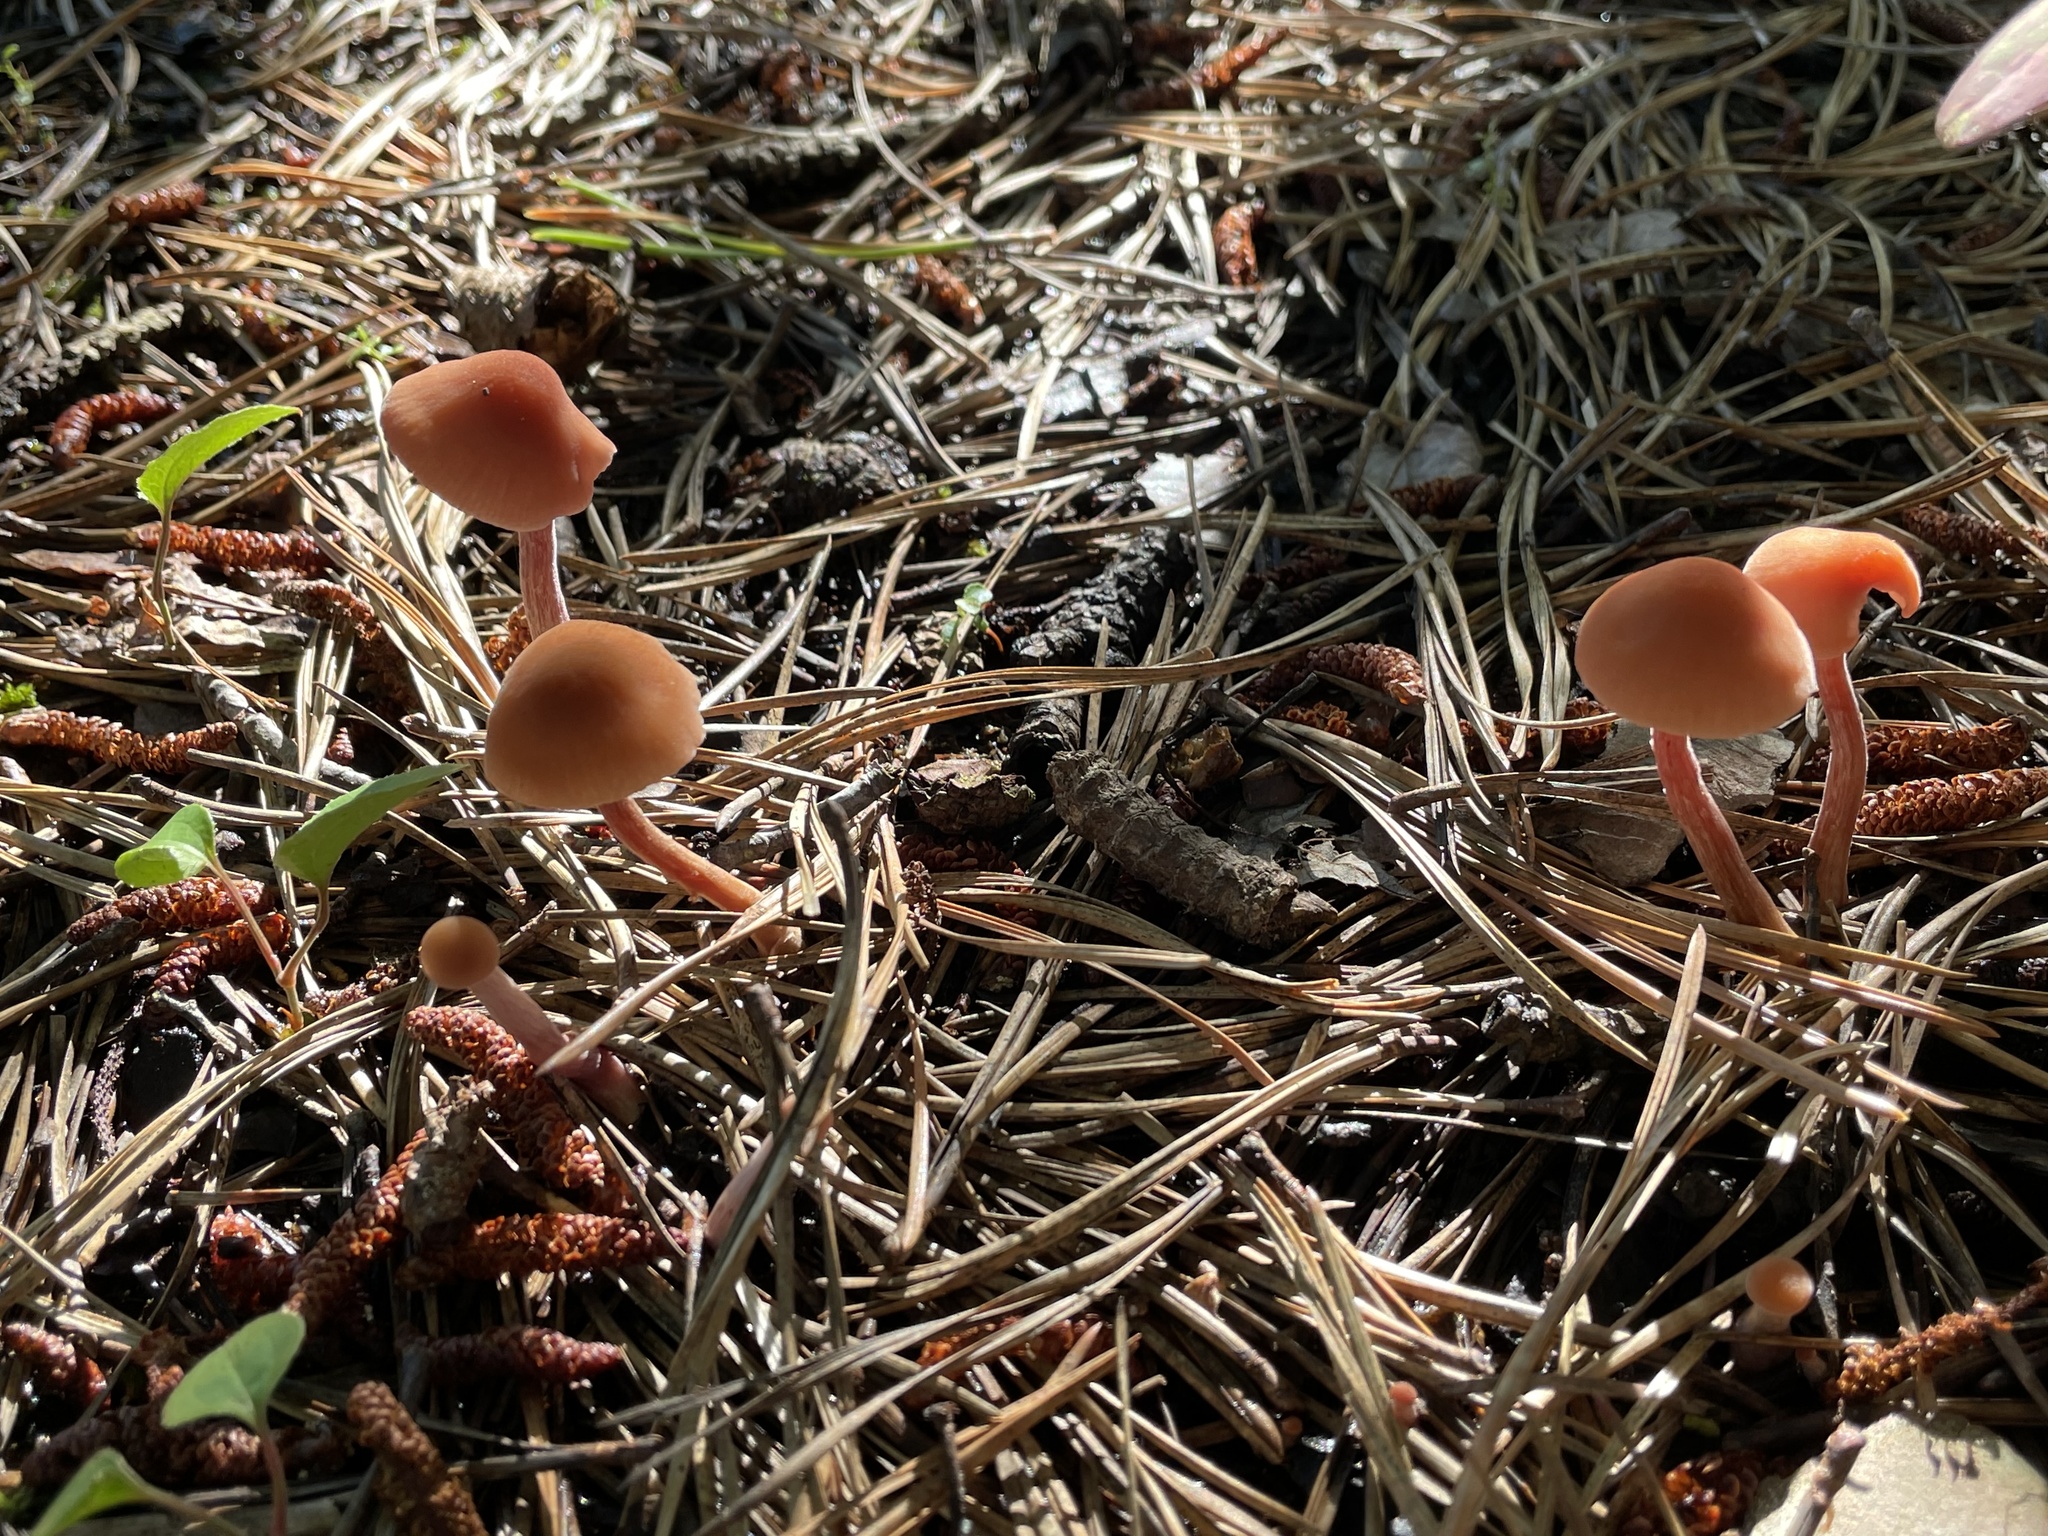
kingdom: Fungi
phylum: Basidiomycota
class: Agaricomycetes
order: Agaricales
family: Hydnangiaceae
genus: Laccaria
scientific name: Laccaria bicolor
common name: Bicoloured deceiver
